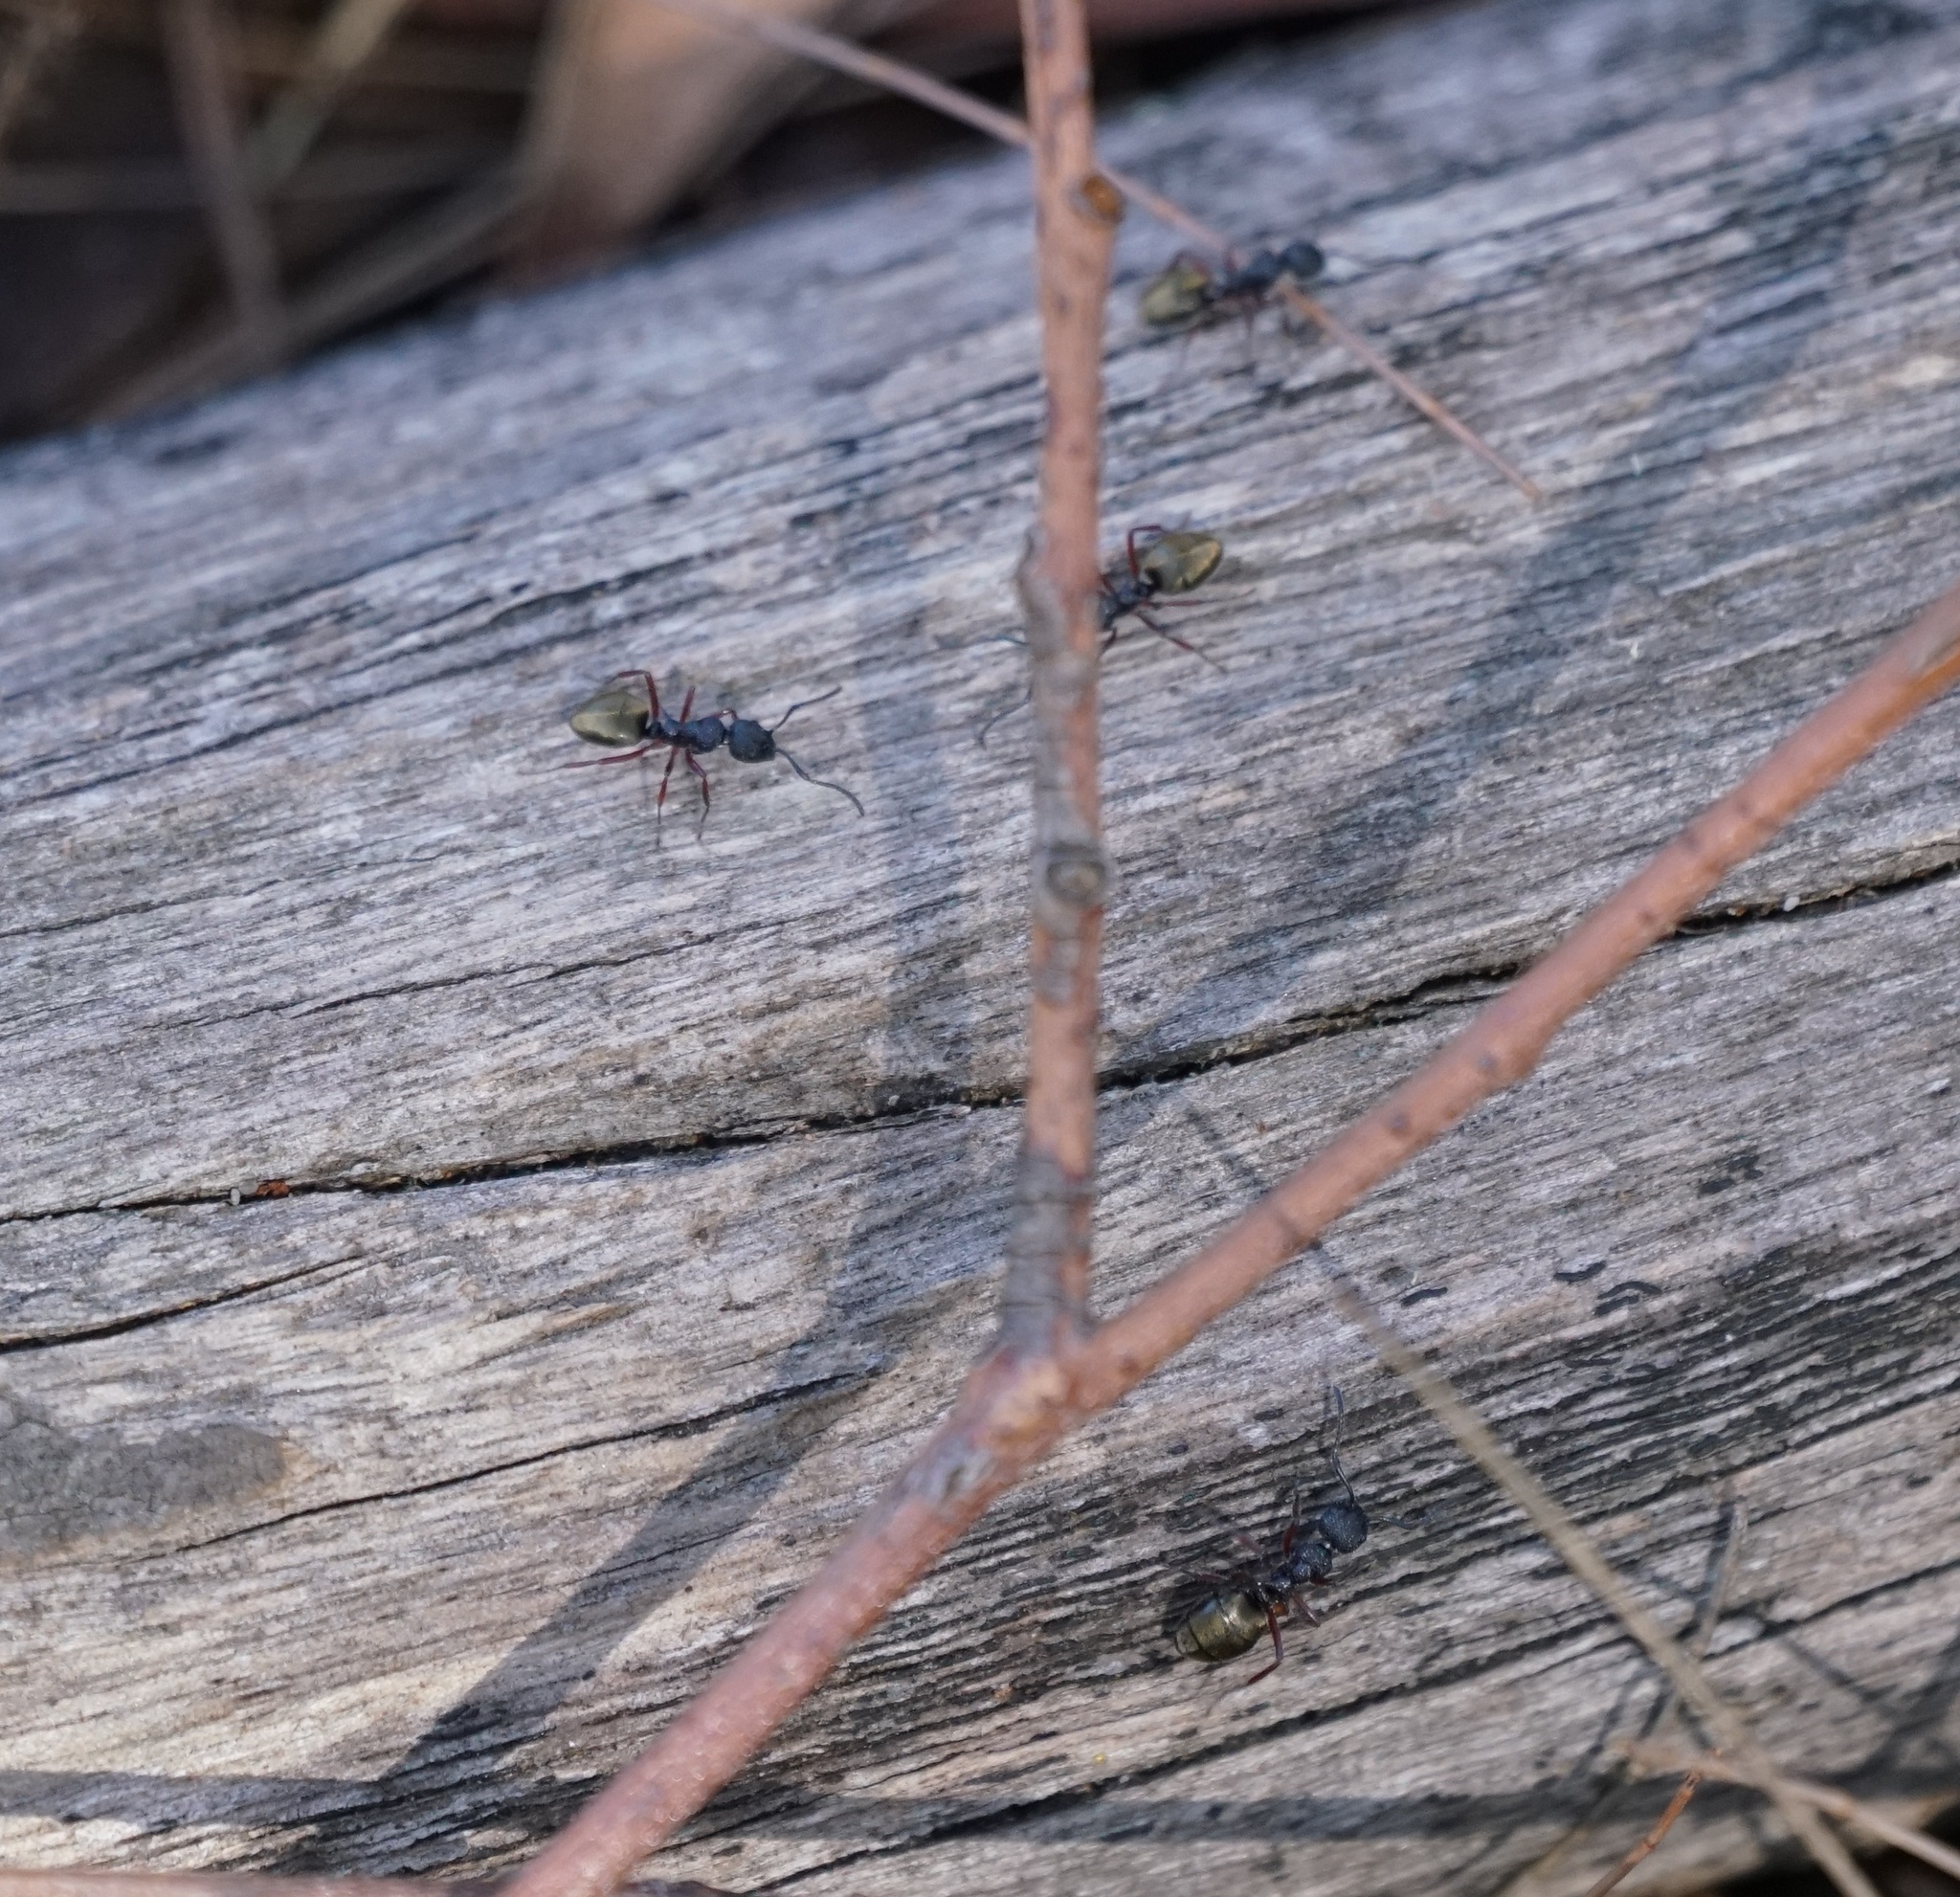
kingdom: Animalia
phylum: Arthropoda
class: Insecta
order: Hymenoptera
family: Formicidae
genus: Dolichoderus
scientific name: Dolichoderus scabridus
